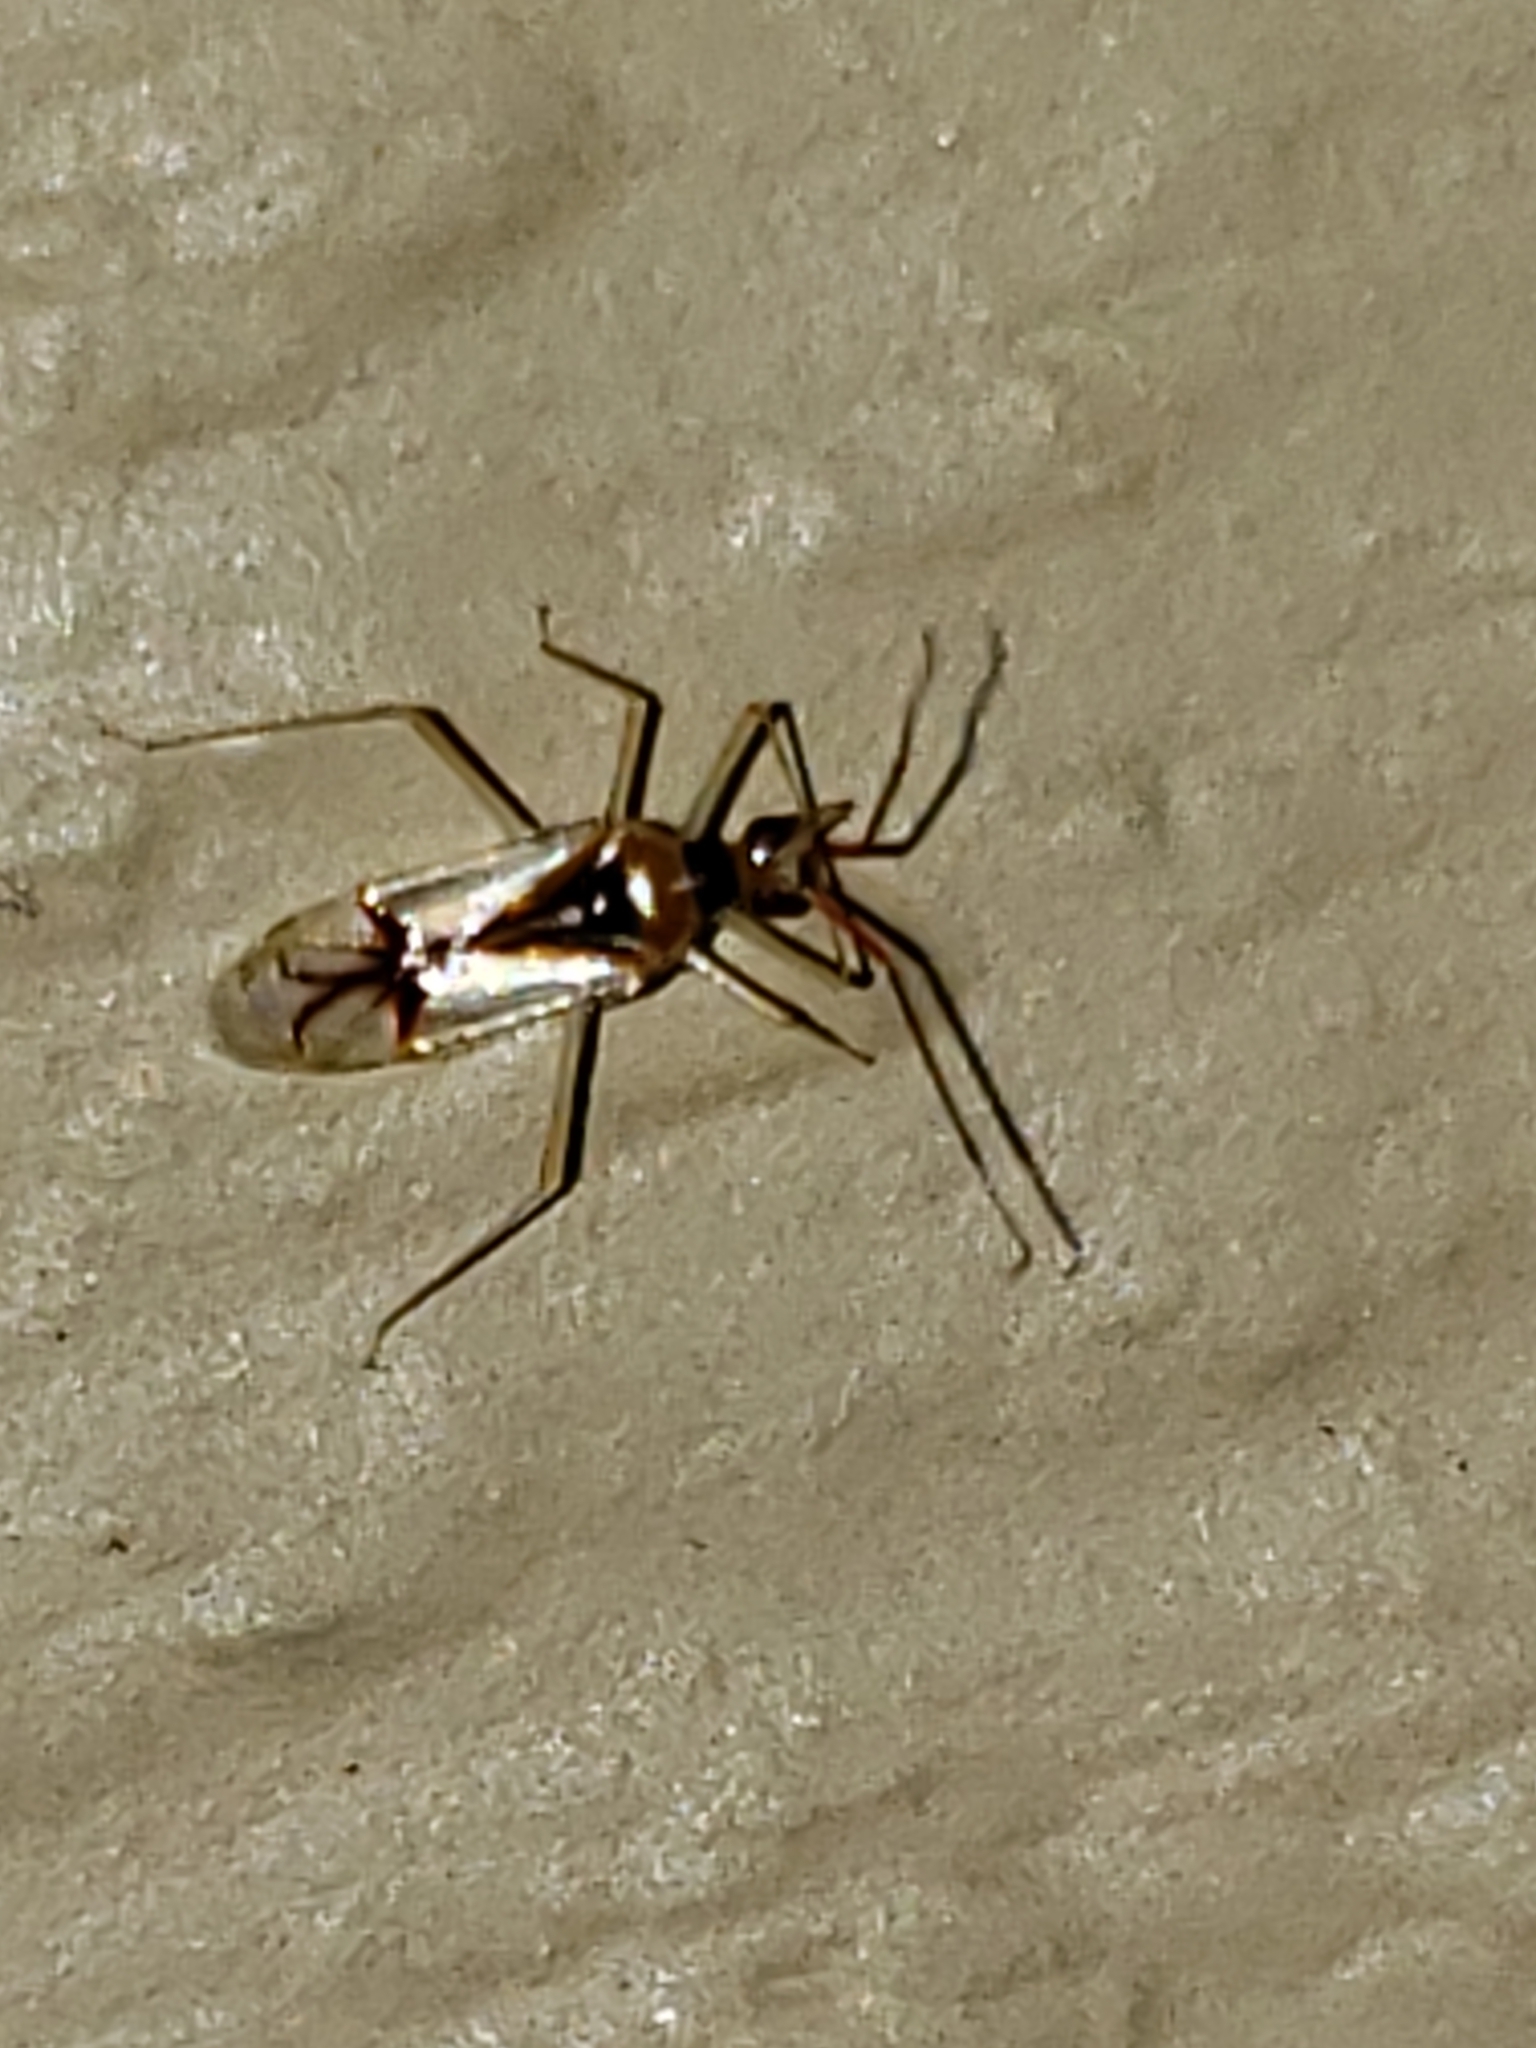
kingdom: Animalia
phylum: Arthropoda
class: Insecta
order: Hemiptera
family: Miridae
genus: Hyaliodes
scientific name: Hyaliodes harti
